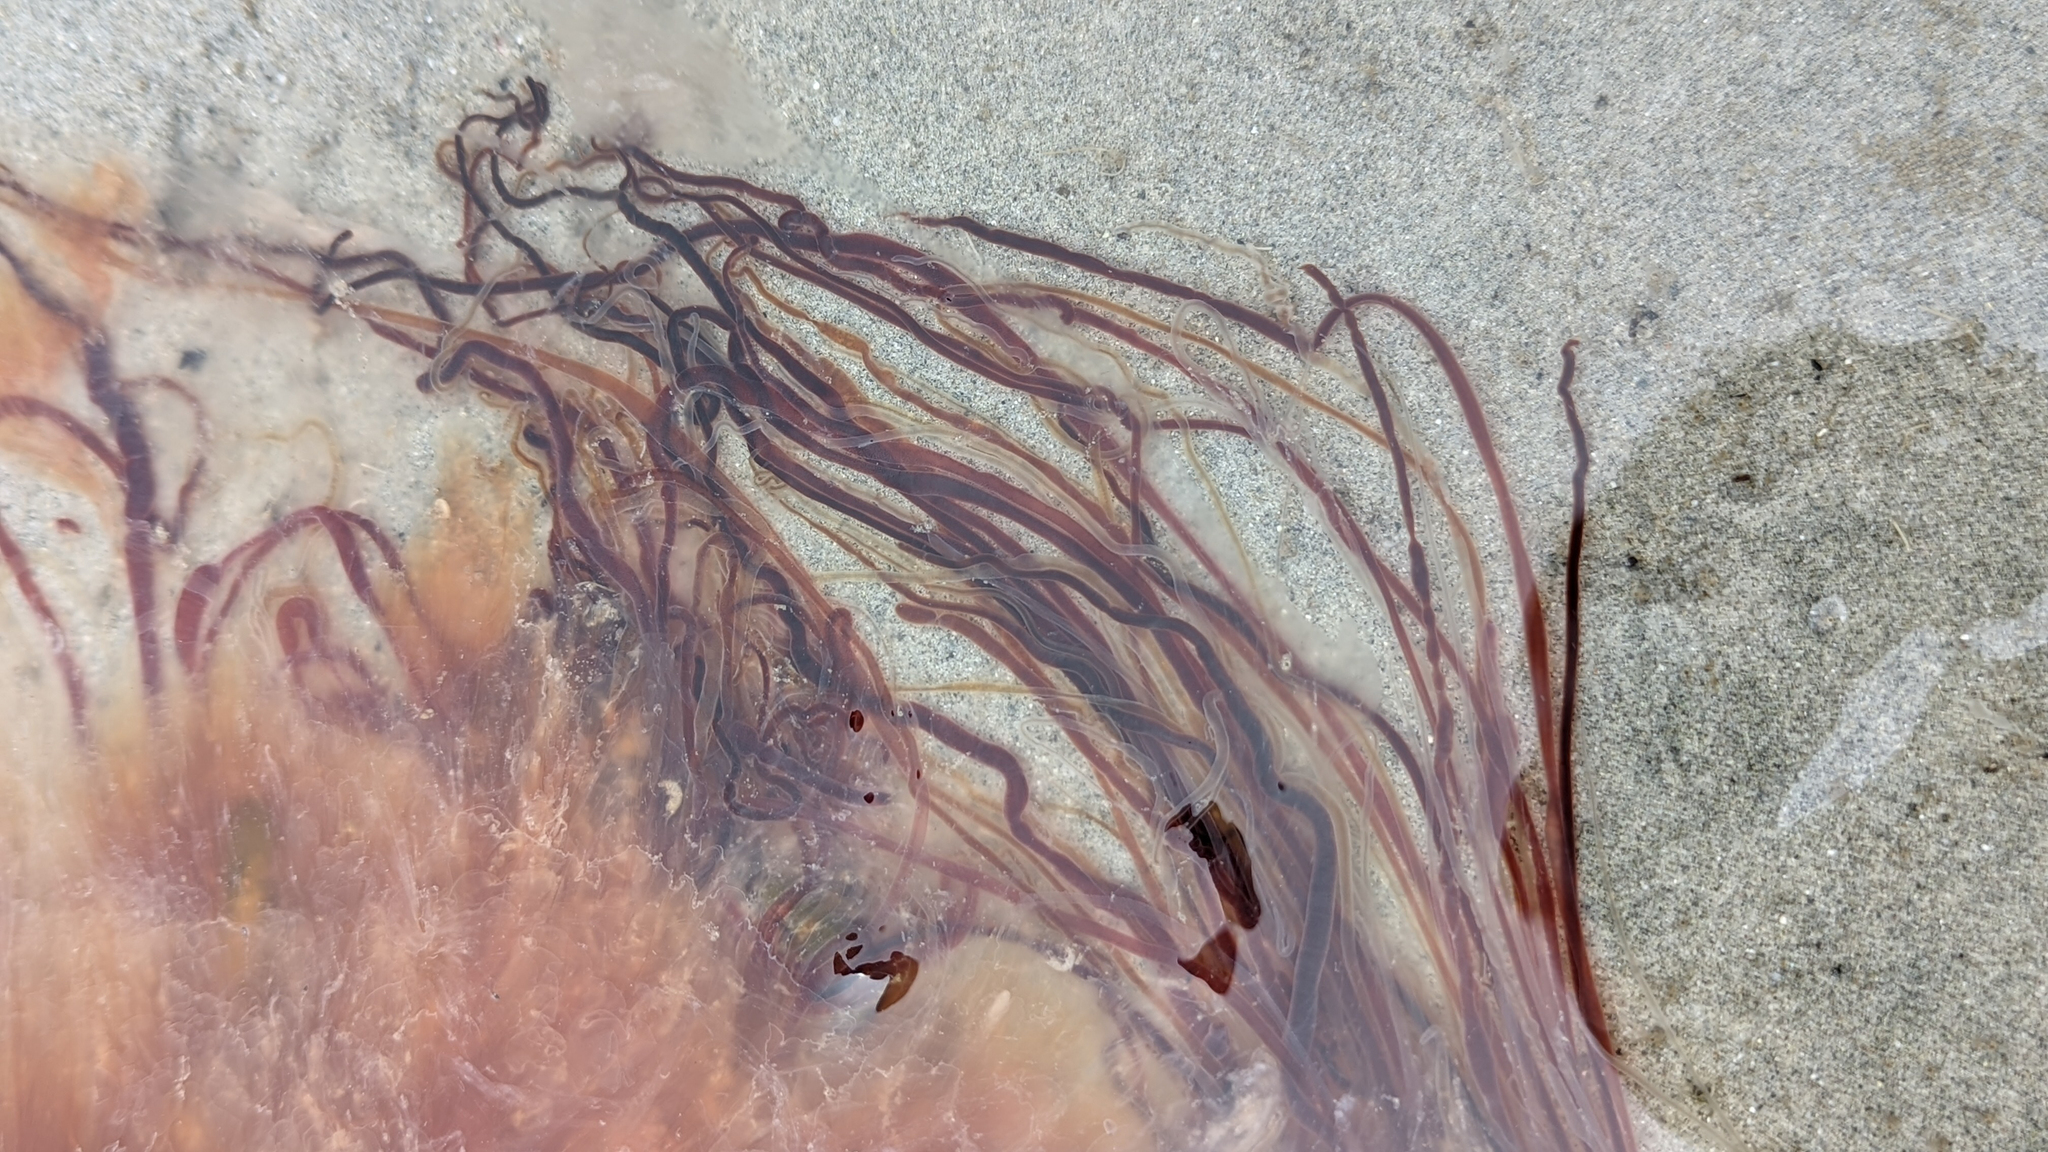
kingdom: Animalia
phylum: Cnidaria
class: Scyphozoa
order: Semaeostomeae
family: Cyaneidae
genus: Cyanea
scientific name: Cyanea ferruginea
